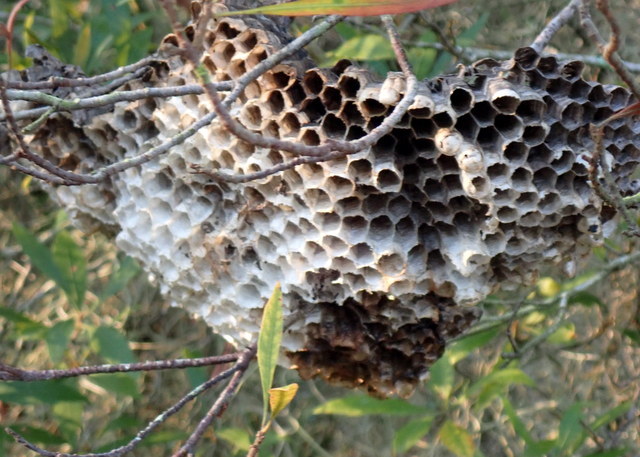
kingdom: Animalia
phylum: Arthropoda
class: Insecta
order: Hymenoptera
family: Vespidae
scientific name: Vespidae
